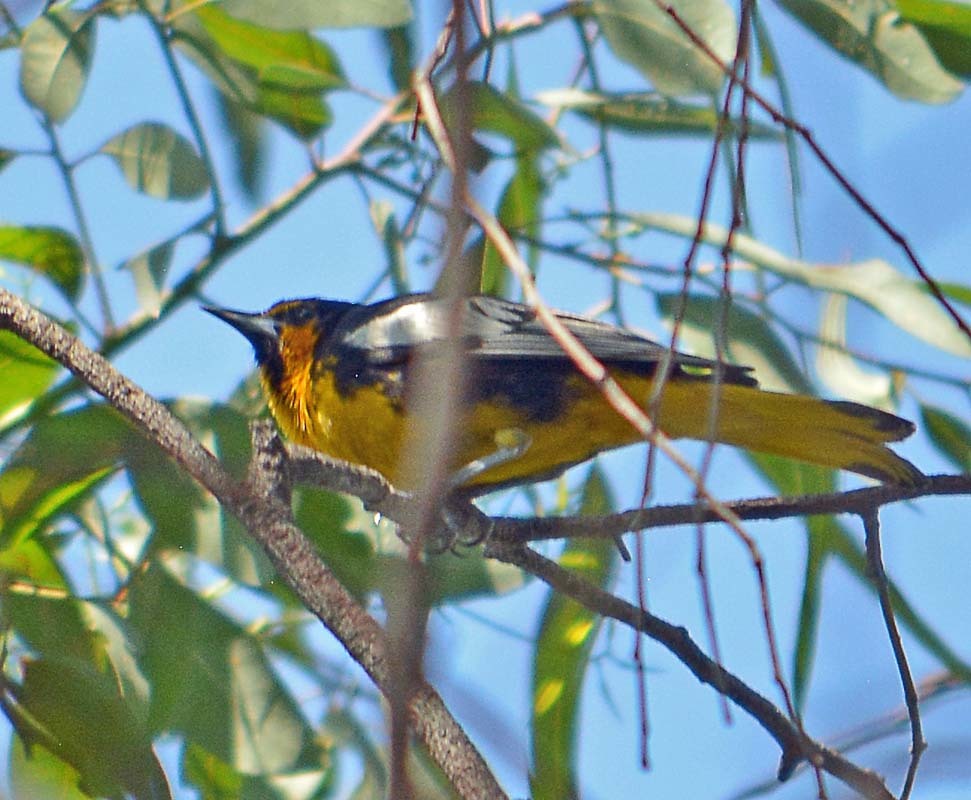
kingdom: Animalia
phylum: Chordata
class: Aves
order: Passeriformes
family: Icteridae
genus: Icterus
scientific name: Icterus abeillei
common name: Black-backed oriole
